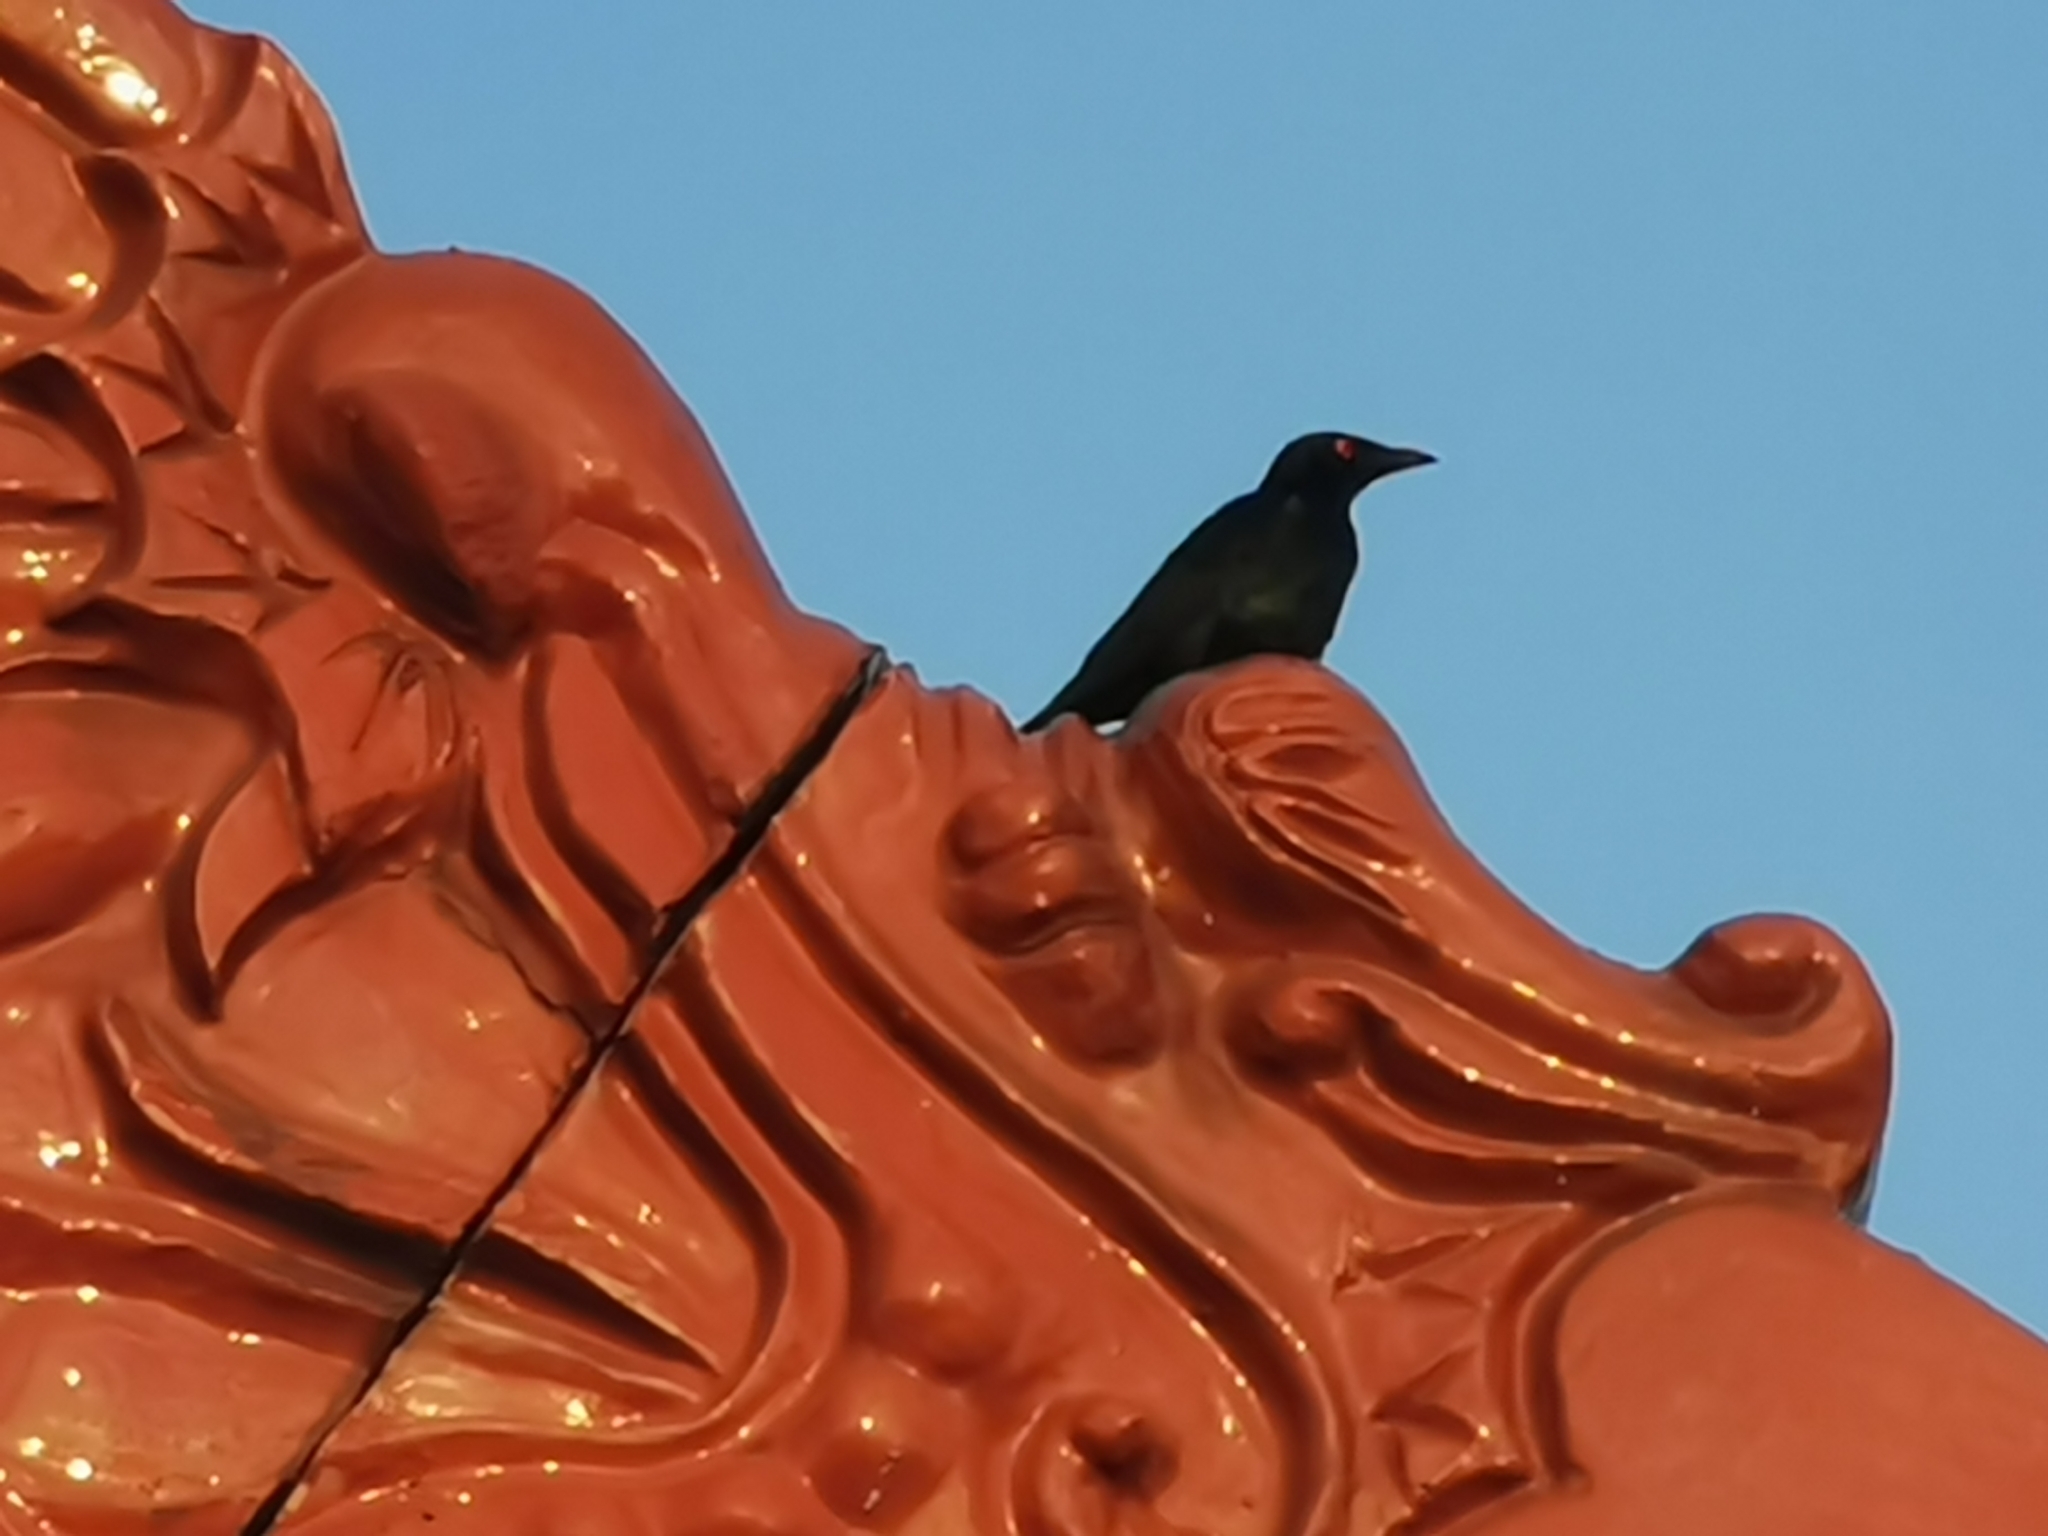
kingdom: Animalia
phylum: Chordata
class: Aves
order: Passeriformes
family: Sturnidae
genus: Aplonis
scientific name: Aplonis panayensis
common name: Asian glossy starling
